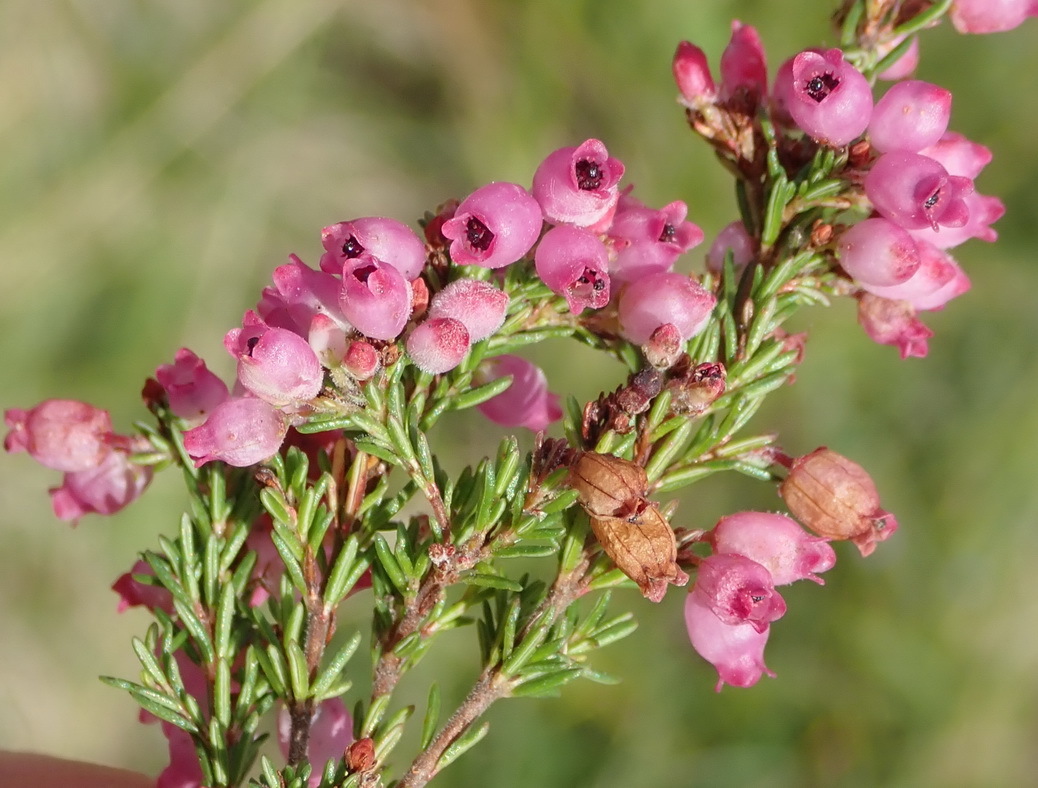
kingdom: Plantae
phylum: Tracheophyta
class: Magnoliopsida
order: Ericales
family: Ericaceae
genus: Erica
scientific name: Erica gracilis
